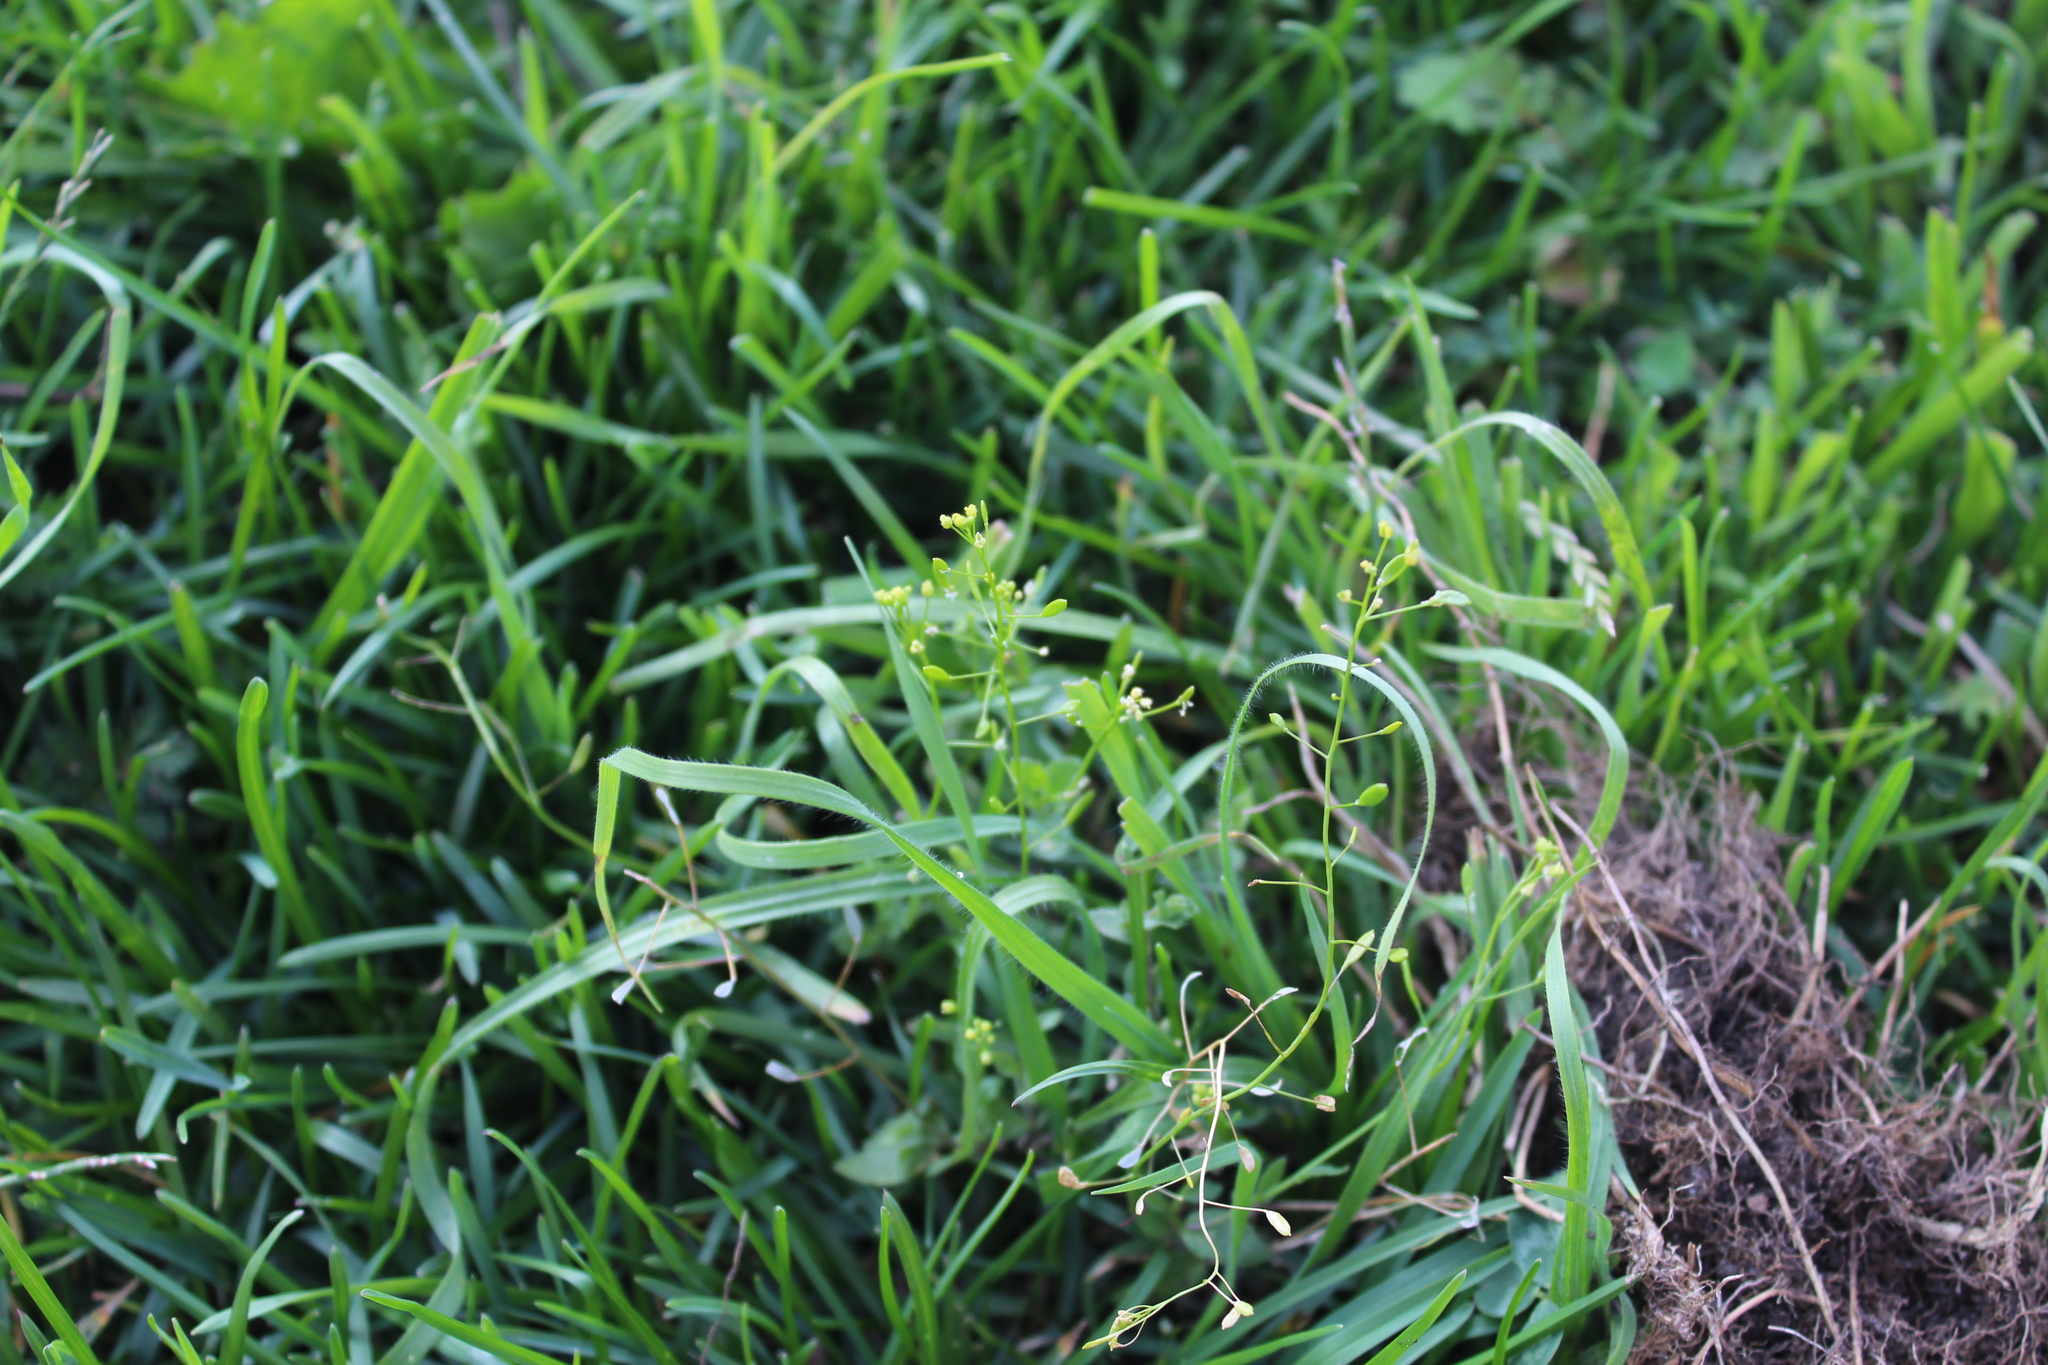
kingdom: Plantae
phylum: Tracheophyta
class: Magnoliopsida
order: Brassicales
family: Brassicaceae
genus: Draba
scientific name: Draba nemorosa
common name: Wood whitlow-grass
